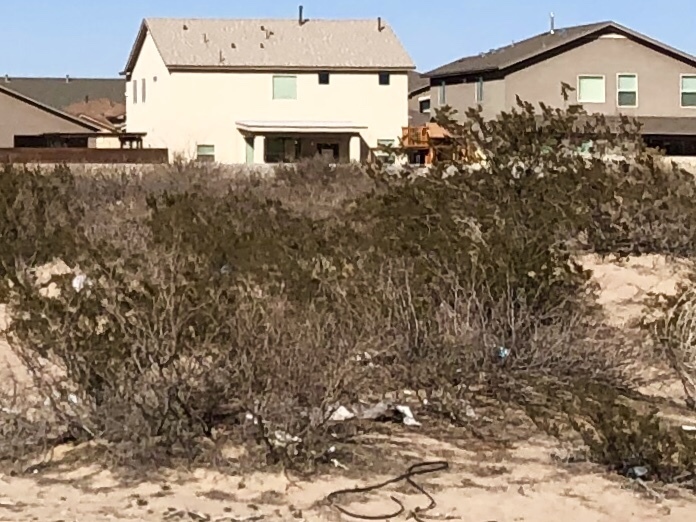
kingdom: Plantae
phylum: Tracheophyta
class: Magnoliopsida
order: Zygophyllales
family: Zygophyllaceae
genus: Larrea
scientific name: Larrea tridentata
